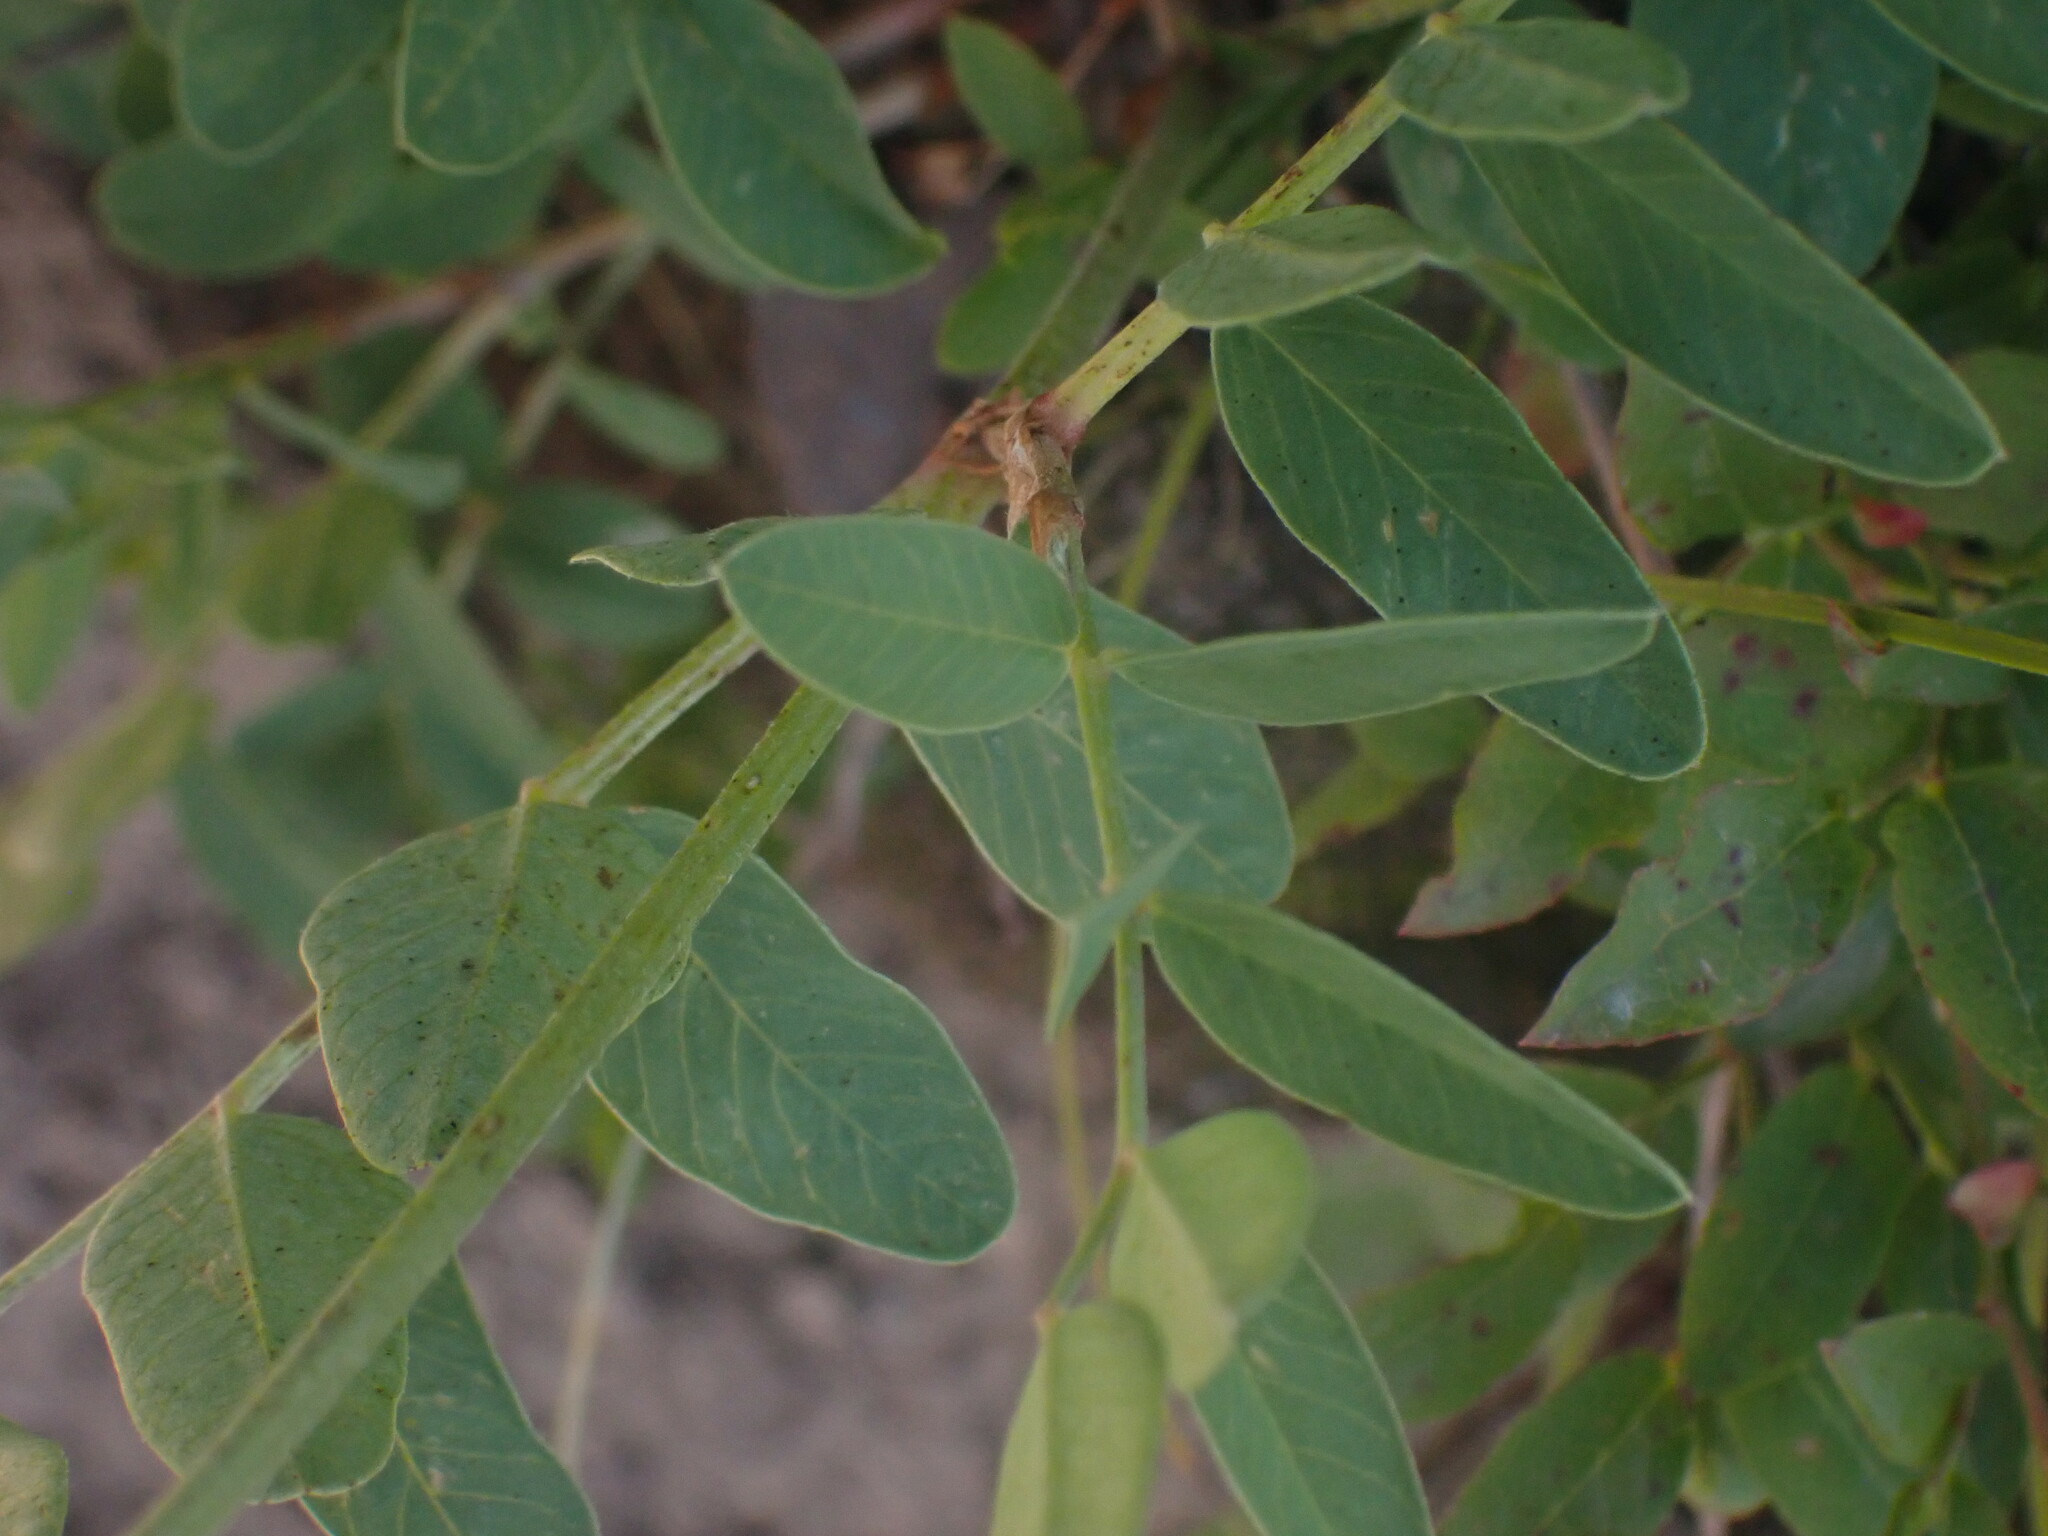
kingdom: Plantae
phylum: Tracheophyta
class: Magnoliopsida
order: Fabales
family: Fabaceae
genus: Hedysarum
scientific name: Hedysarum sulphurescens
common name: Sulphur hedysarum
